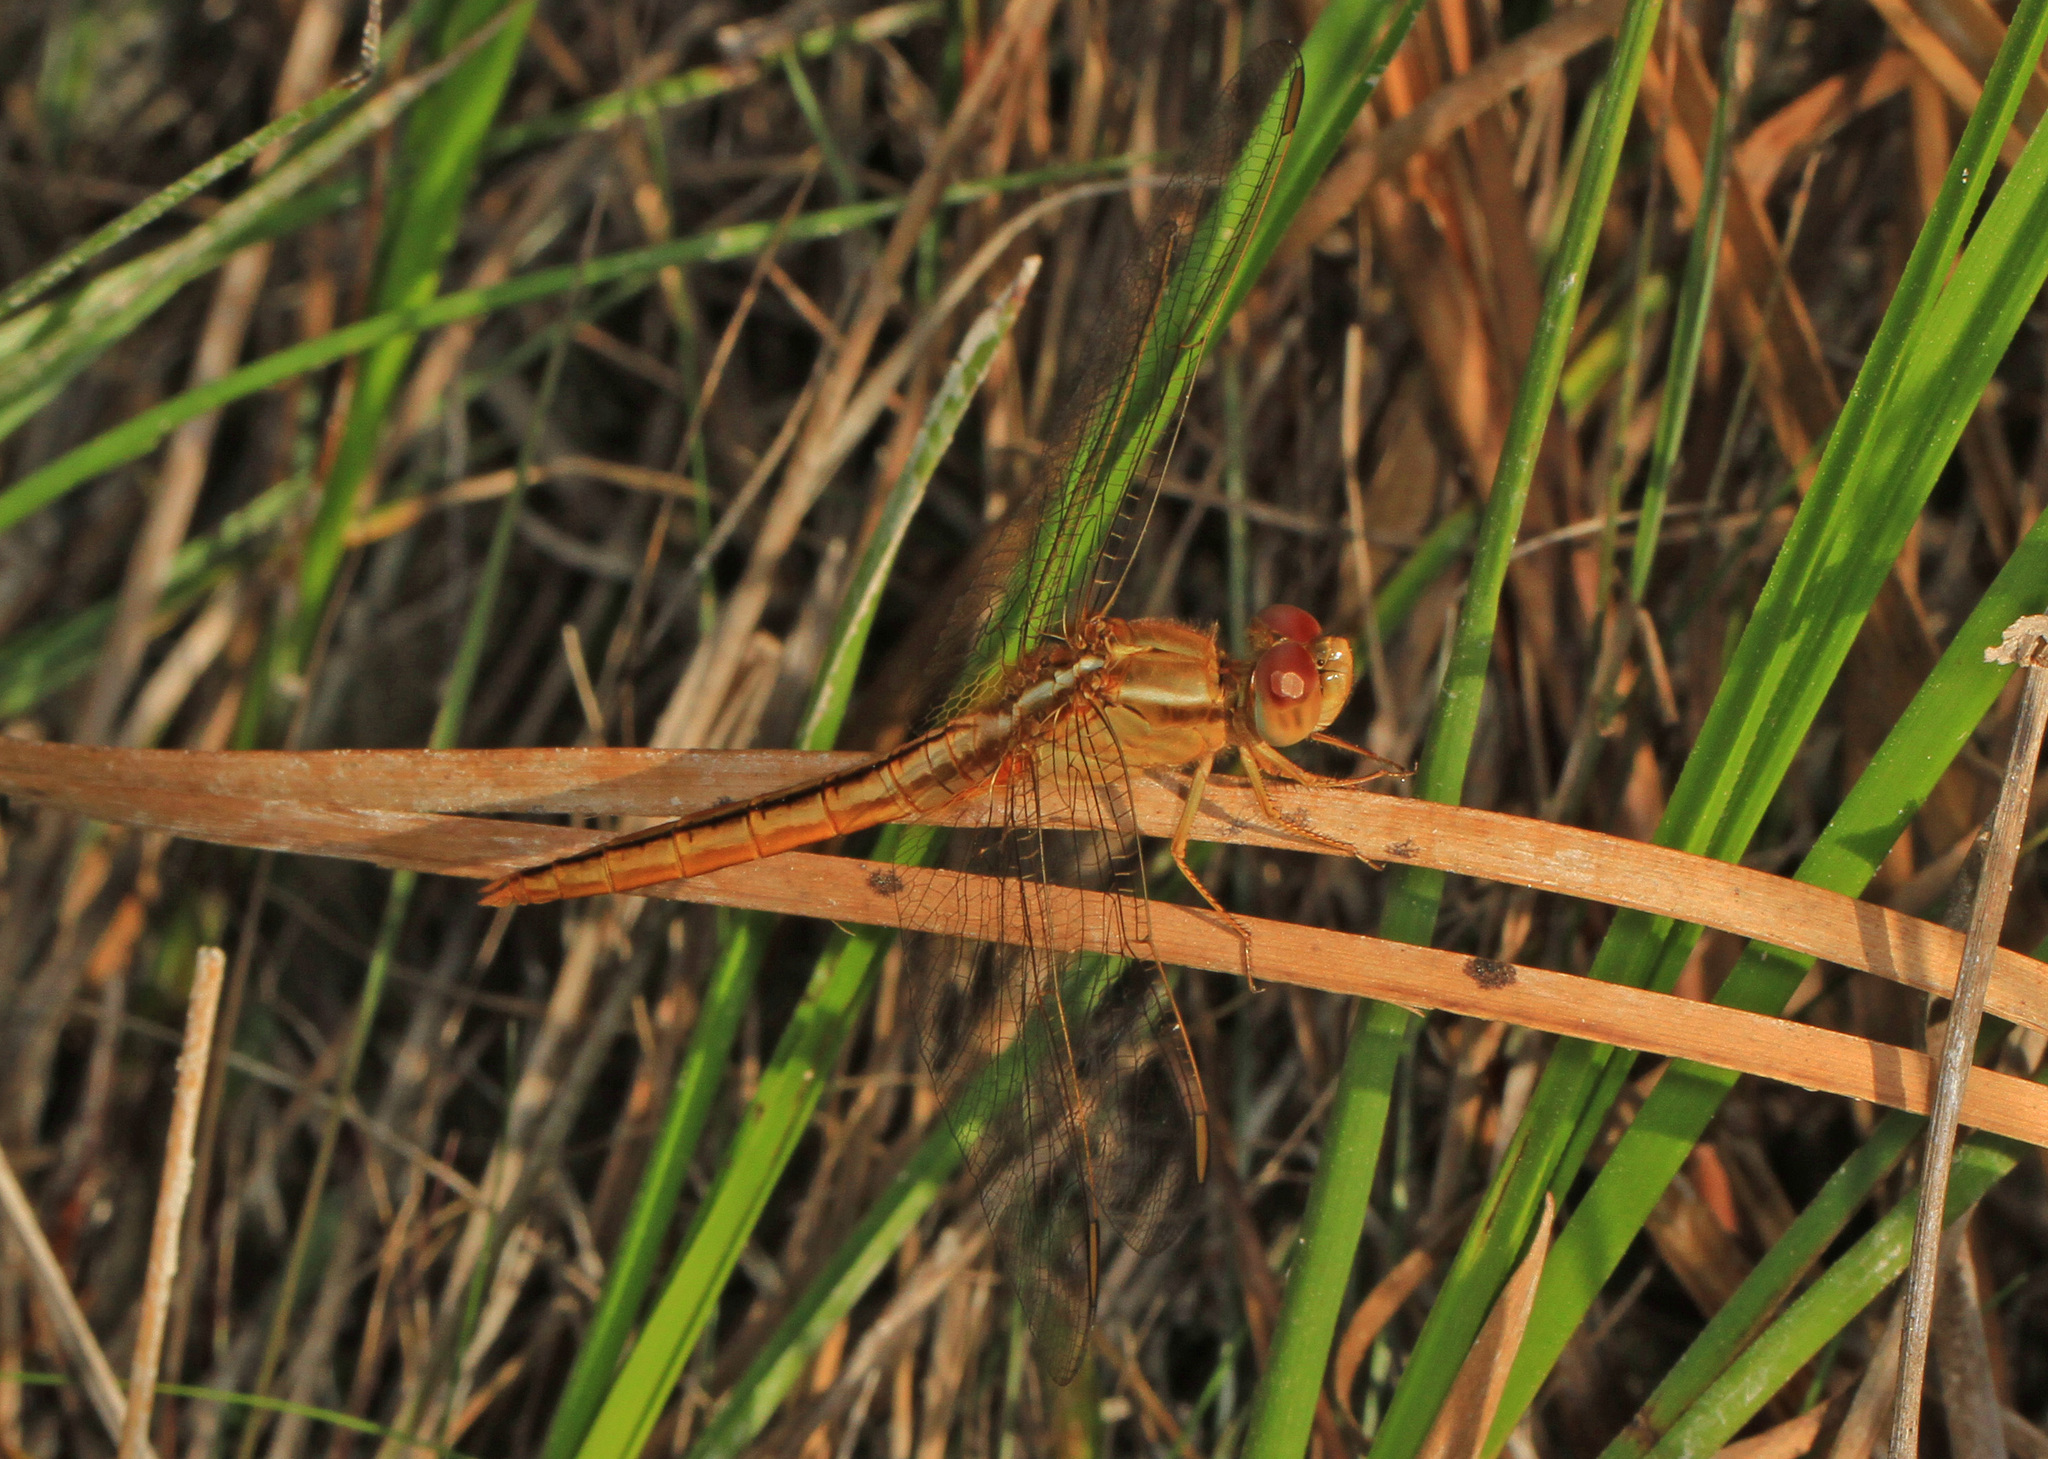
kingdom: Animalia
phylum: Arthropoda
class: Insecta
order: Odonata
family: Libellulidae
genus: Crocothemis
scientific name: Crocothemis servilia
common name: Scarlet skimmer
